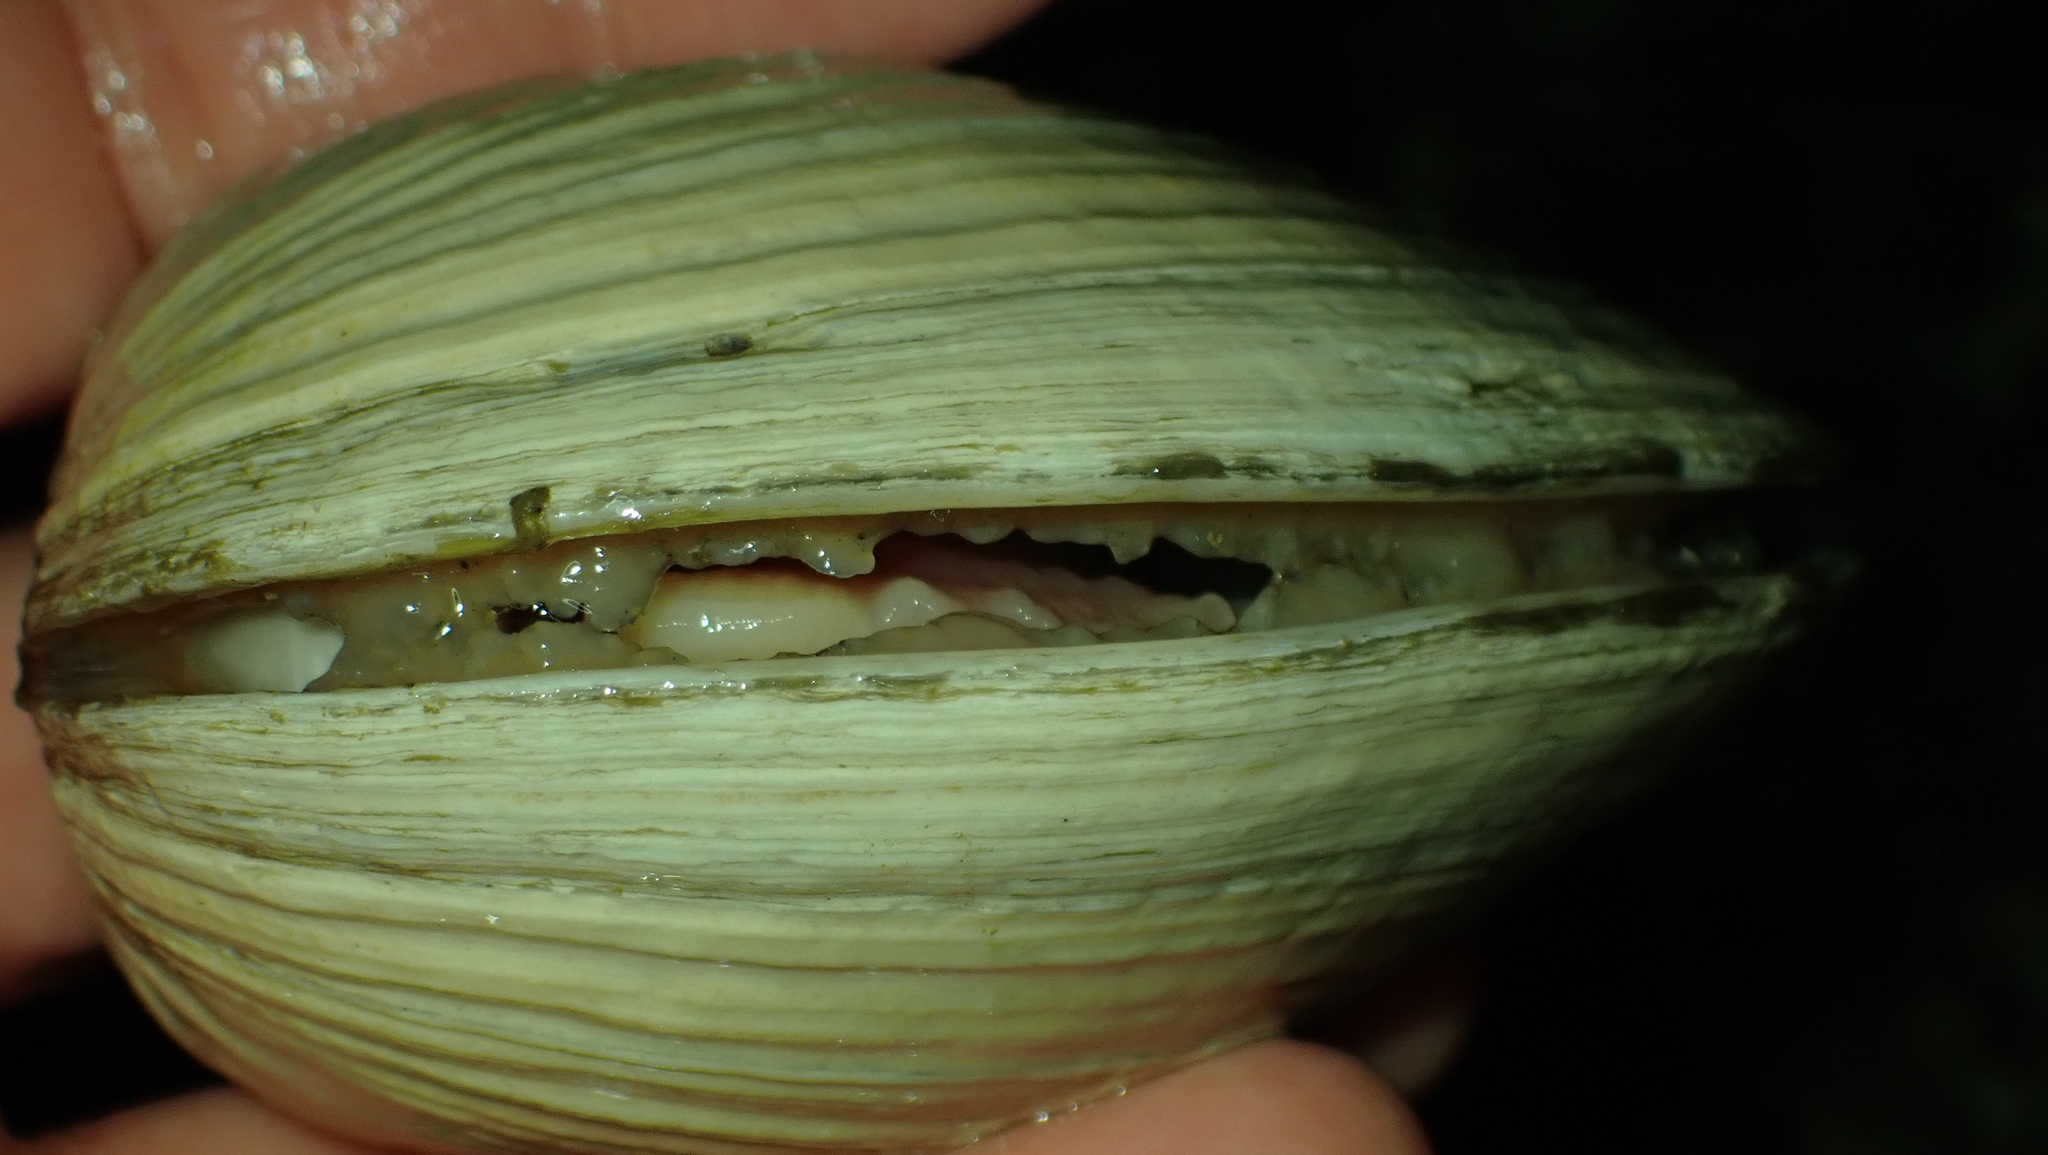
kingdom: Animalia
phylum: Mollusca
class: Bivalvia
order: Venerida
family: Veneridae
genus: Saxidomus
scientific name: Saxidomus gigantea
